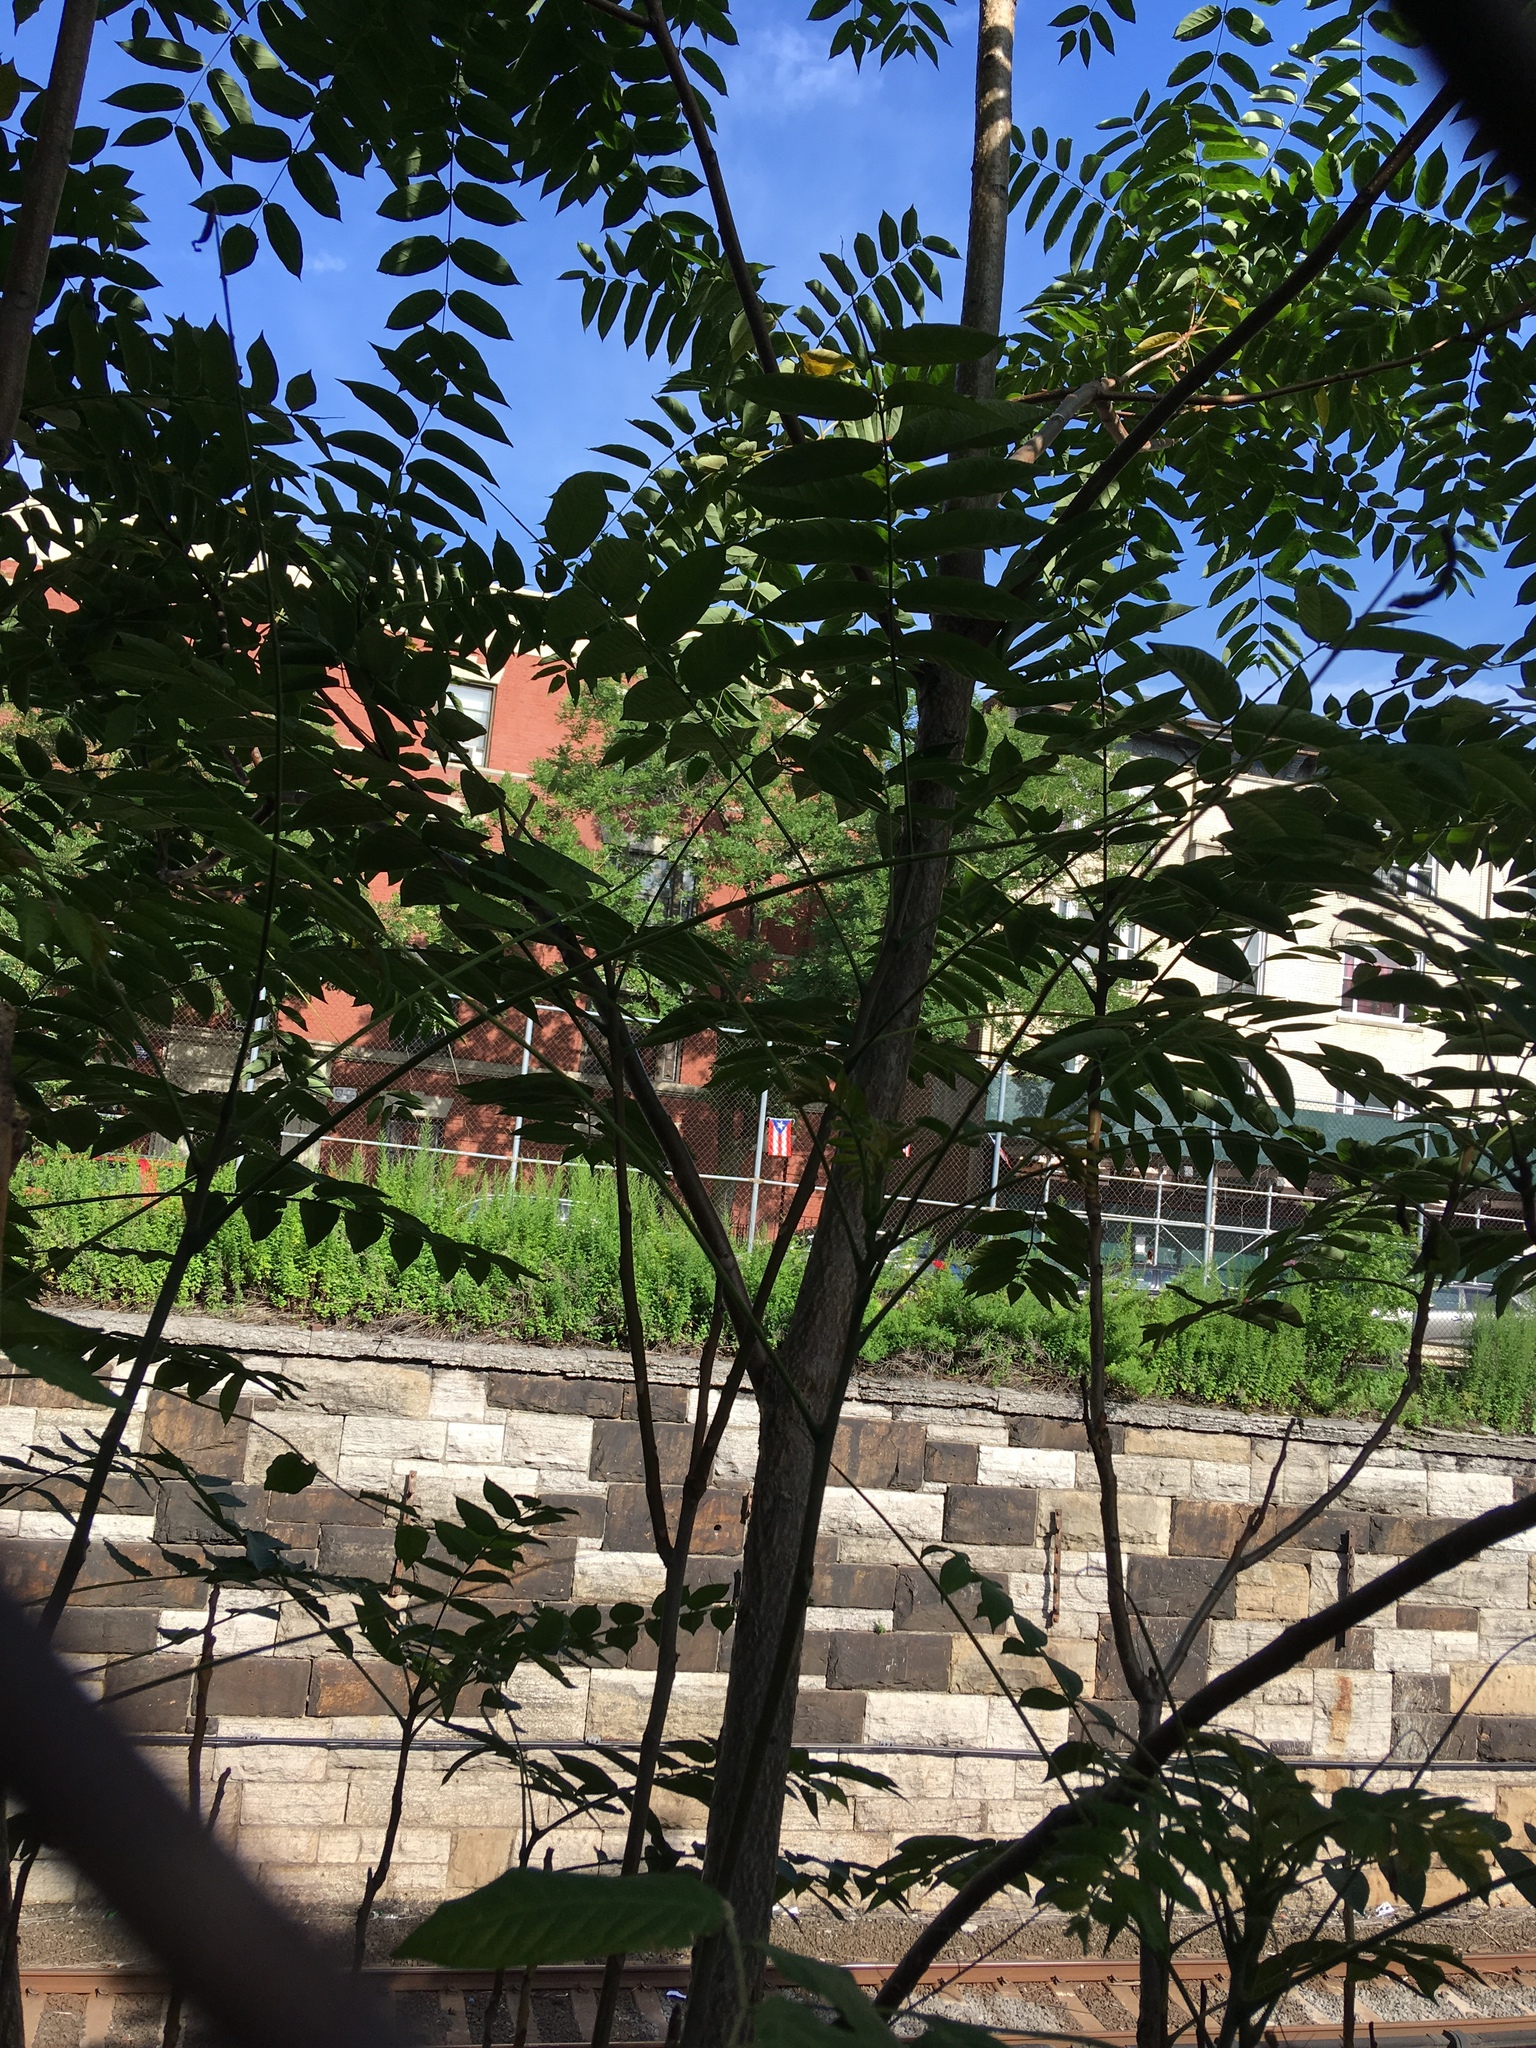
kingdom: Plantae
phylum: Tracheophyta
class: Magnoliopsida
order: Sapindales
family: Simaroubaceae
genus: Ailanthus
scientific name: Ailanthus altissima
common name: Tree-of-heaven
